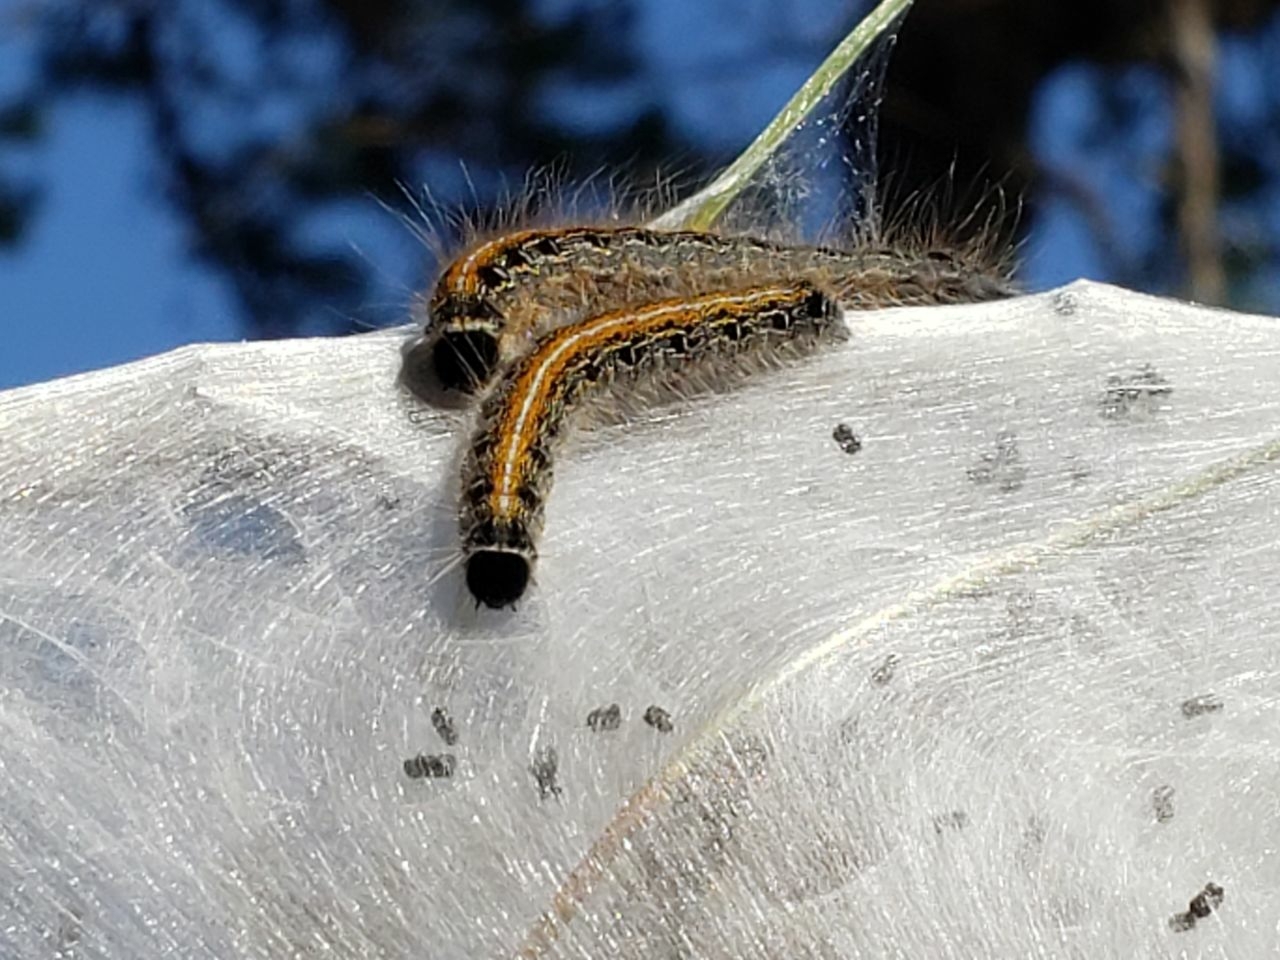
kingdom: Animalia
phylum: Arthropoda
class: Insecta
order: Lepidoptera
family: Lasiocampidae
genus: Malacosoma
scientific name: Malacosoma americana
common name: Eastern tent caterpillar moth
